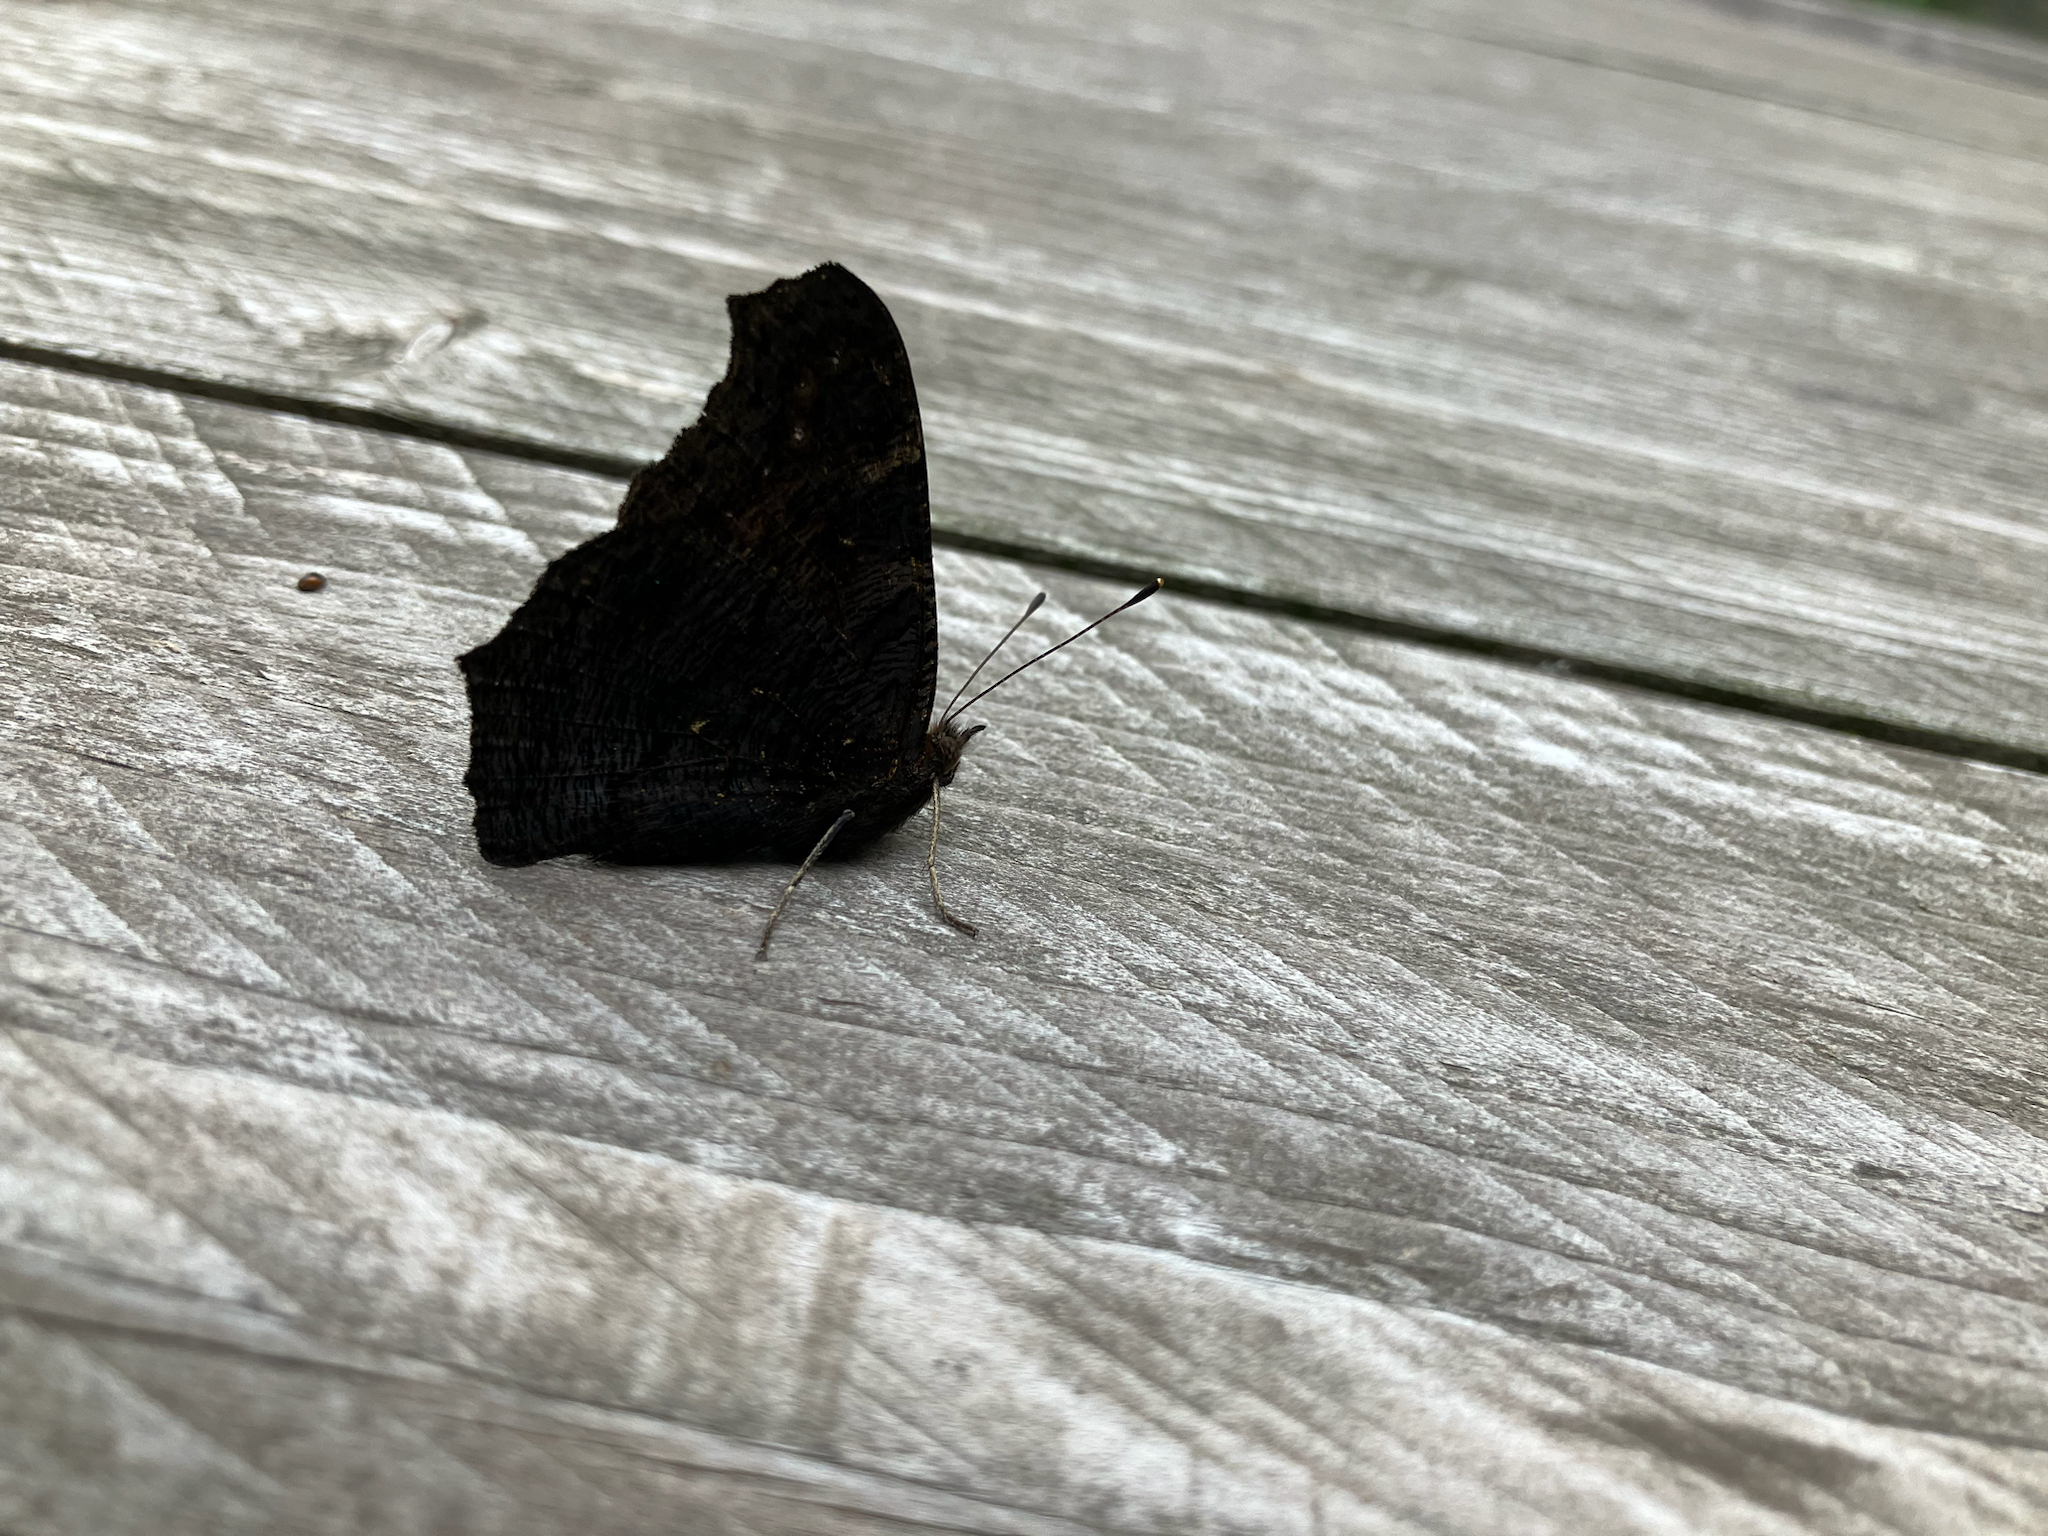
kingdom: Animalia
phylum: Arthropoda
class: Insecta
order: Lepidoptera
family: Nymphalidae
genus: Aglais
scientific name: Aglais io
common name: Peacock
